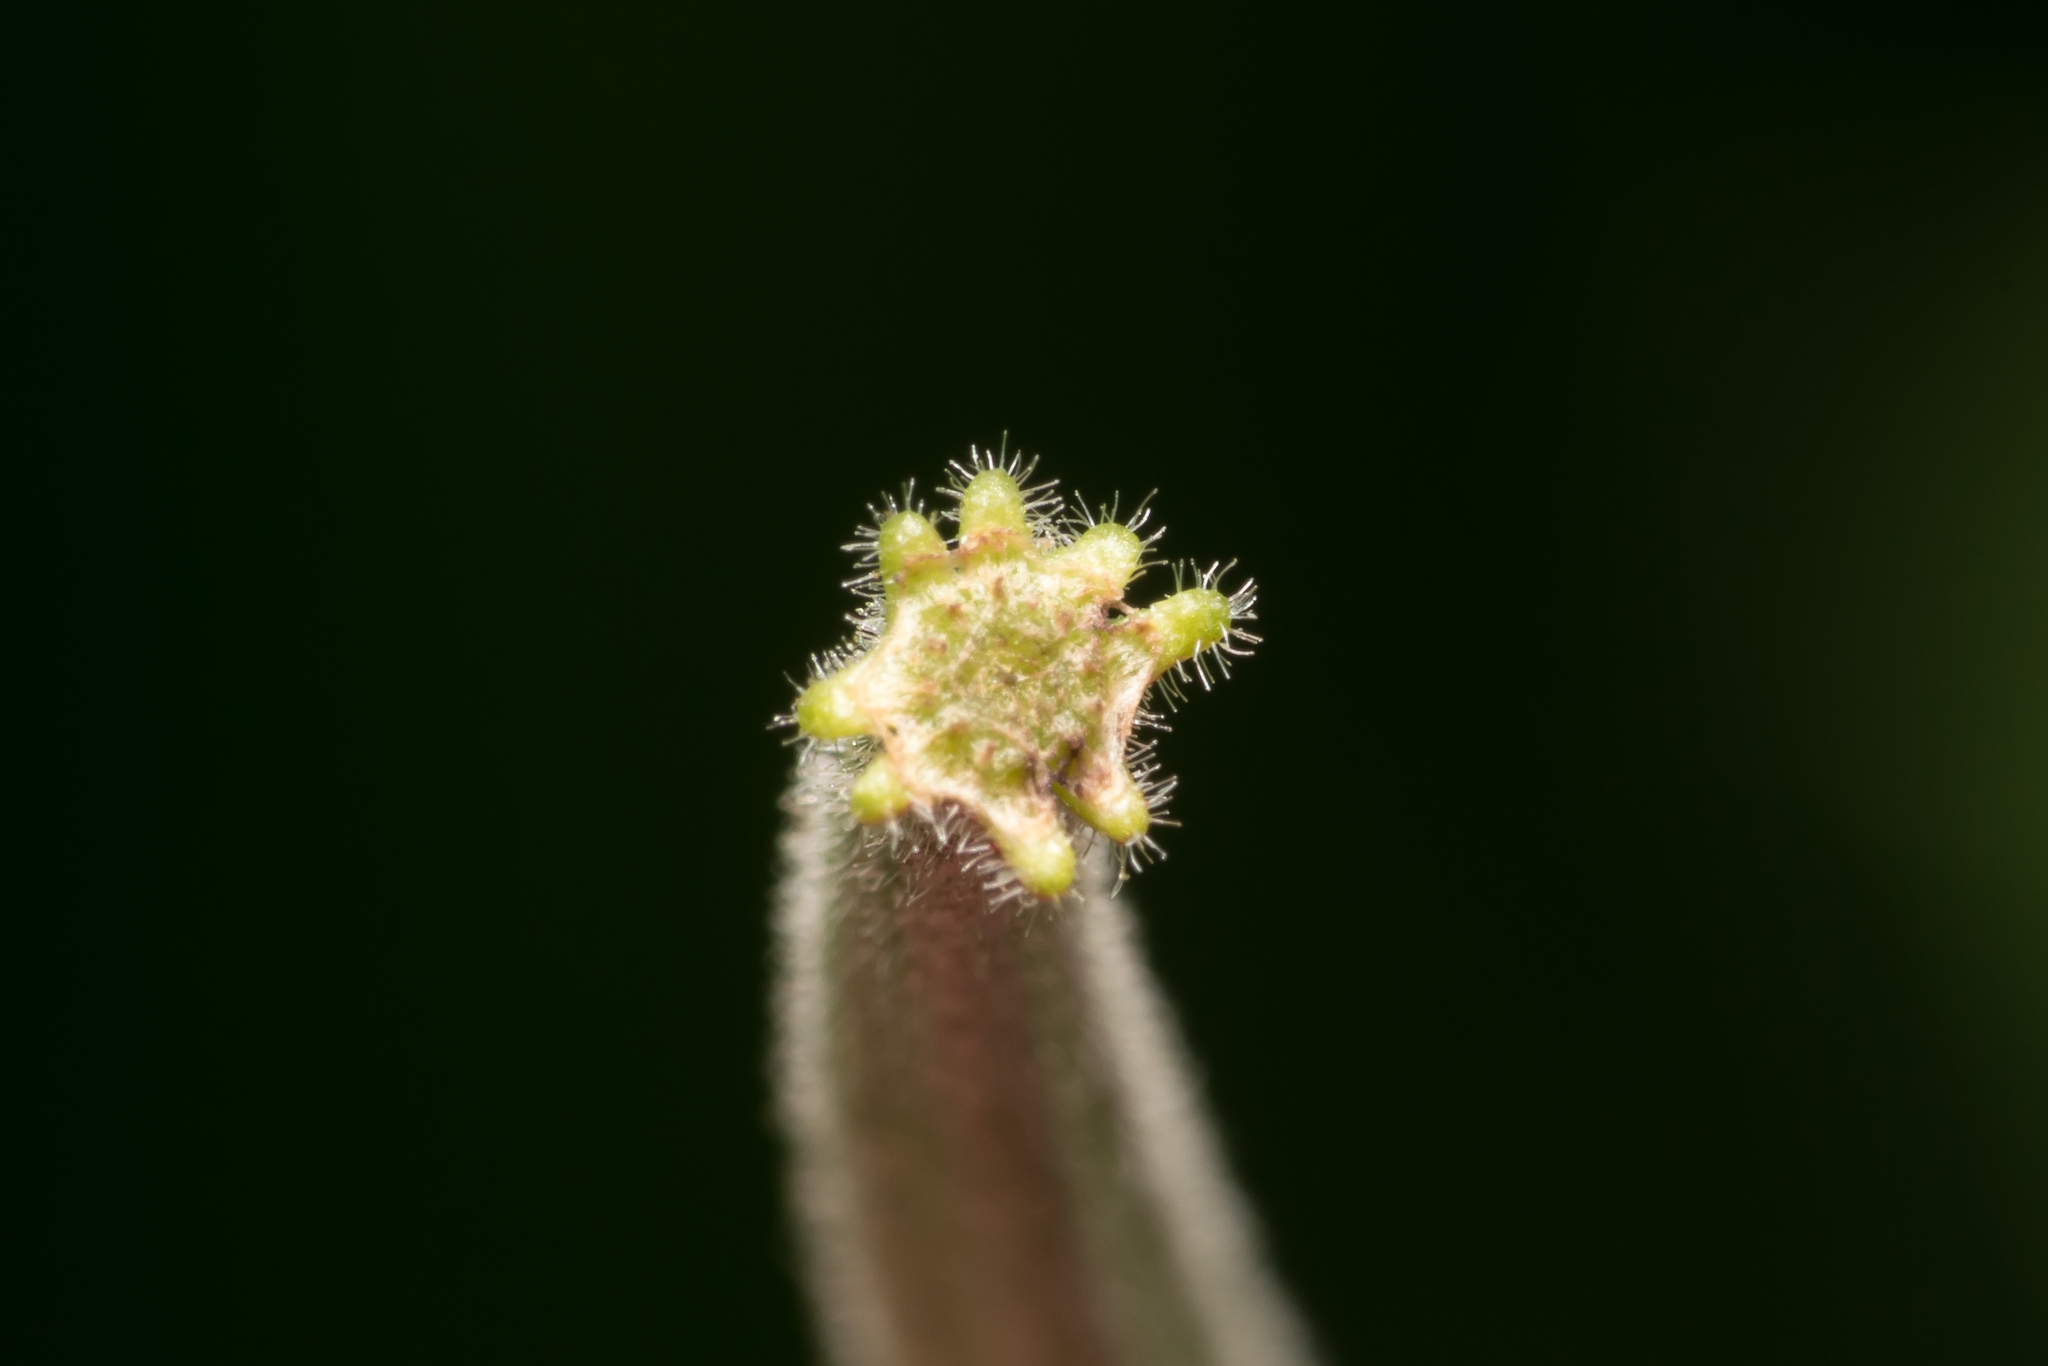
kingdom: Plantae
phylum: Tracheophyta
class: Magnoliopsida
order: Myrtales
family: Onagraceae
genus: Epilobium
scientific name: Epilobium hirsutum
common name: Great willowherb
